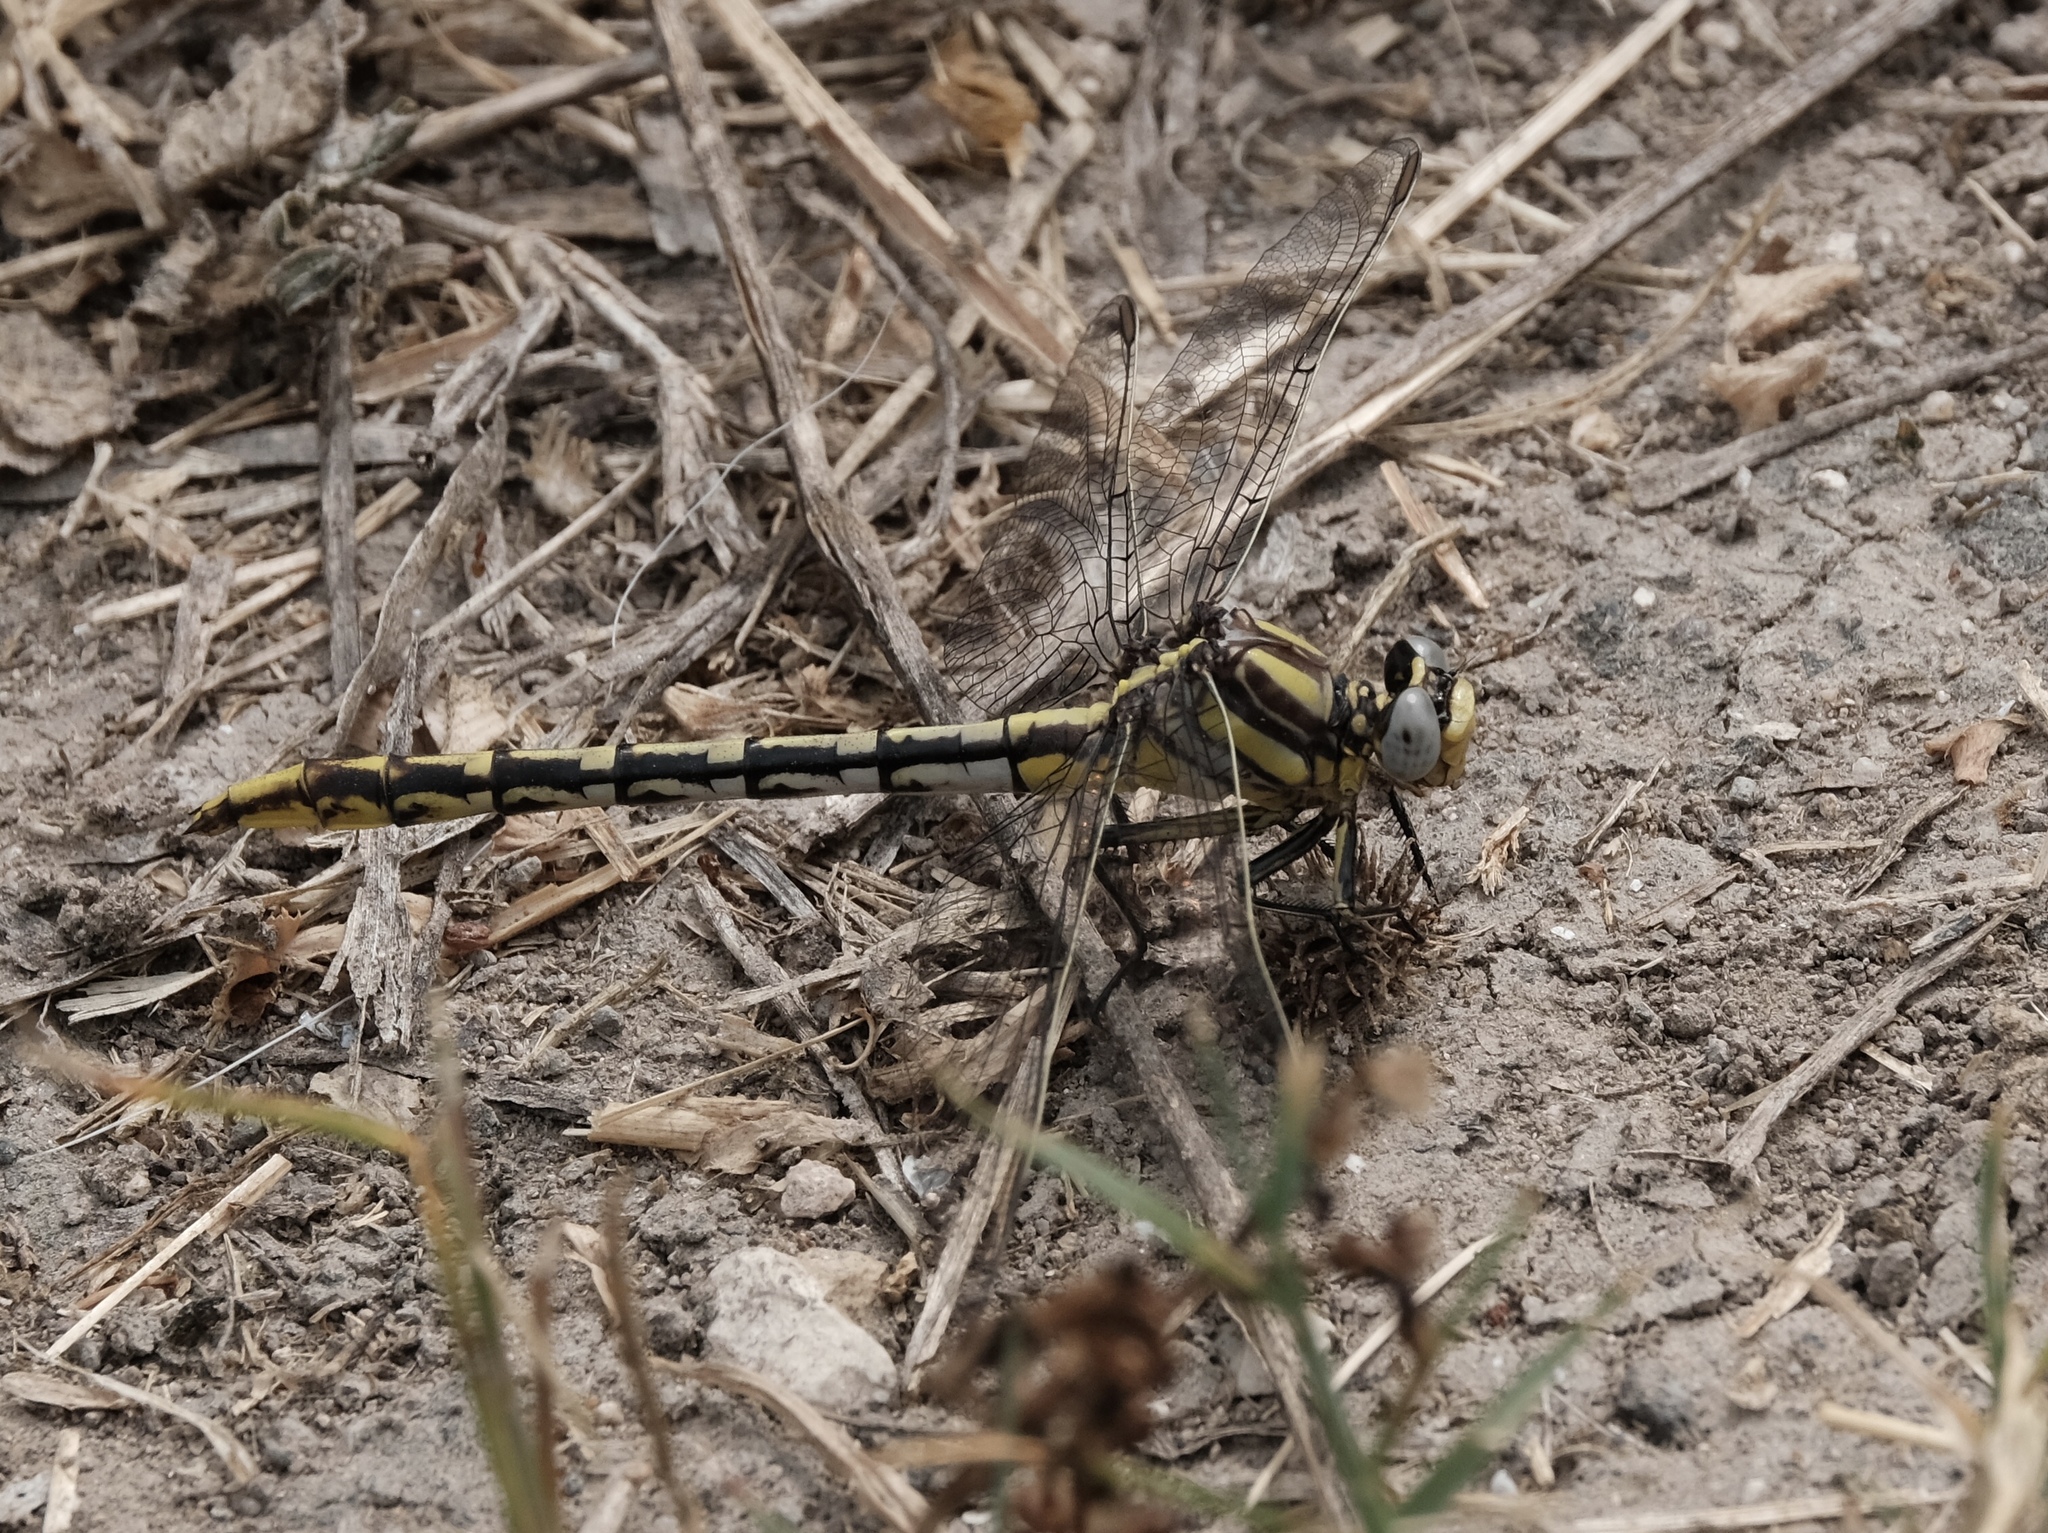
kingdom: Animalia
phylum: Arthropoda
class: Insecta
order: Odonata
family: Gomphidae
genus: Phanogomphus
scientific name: Phanogomphus militaris
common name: Sulphur-tipped clubtail
